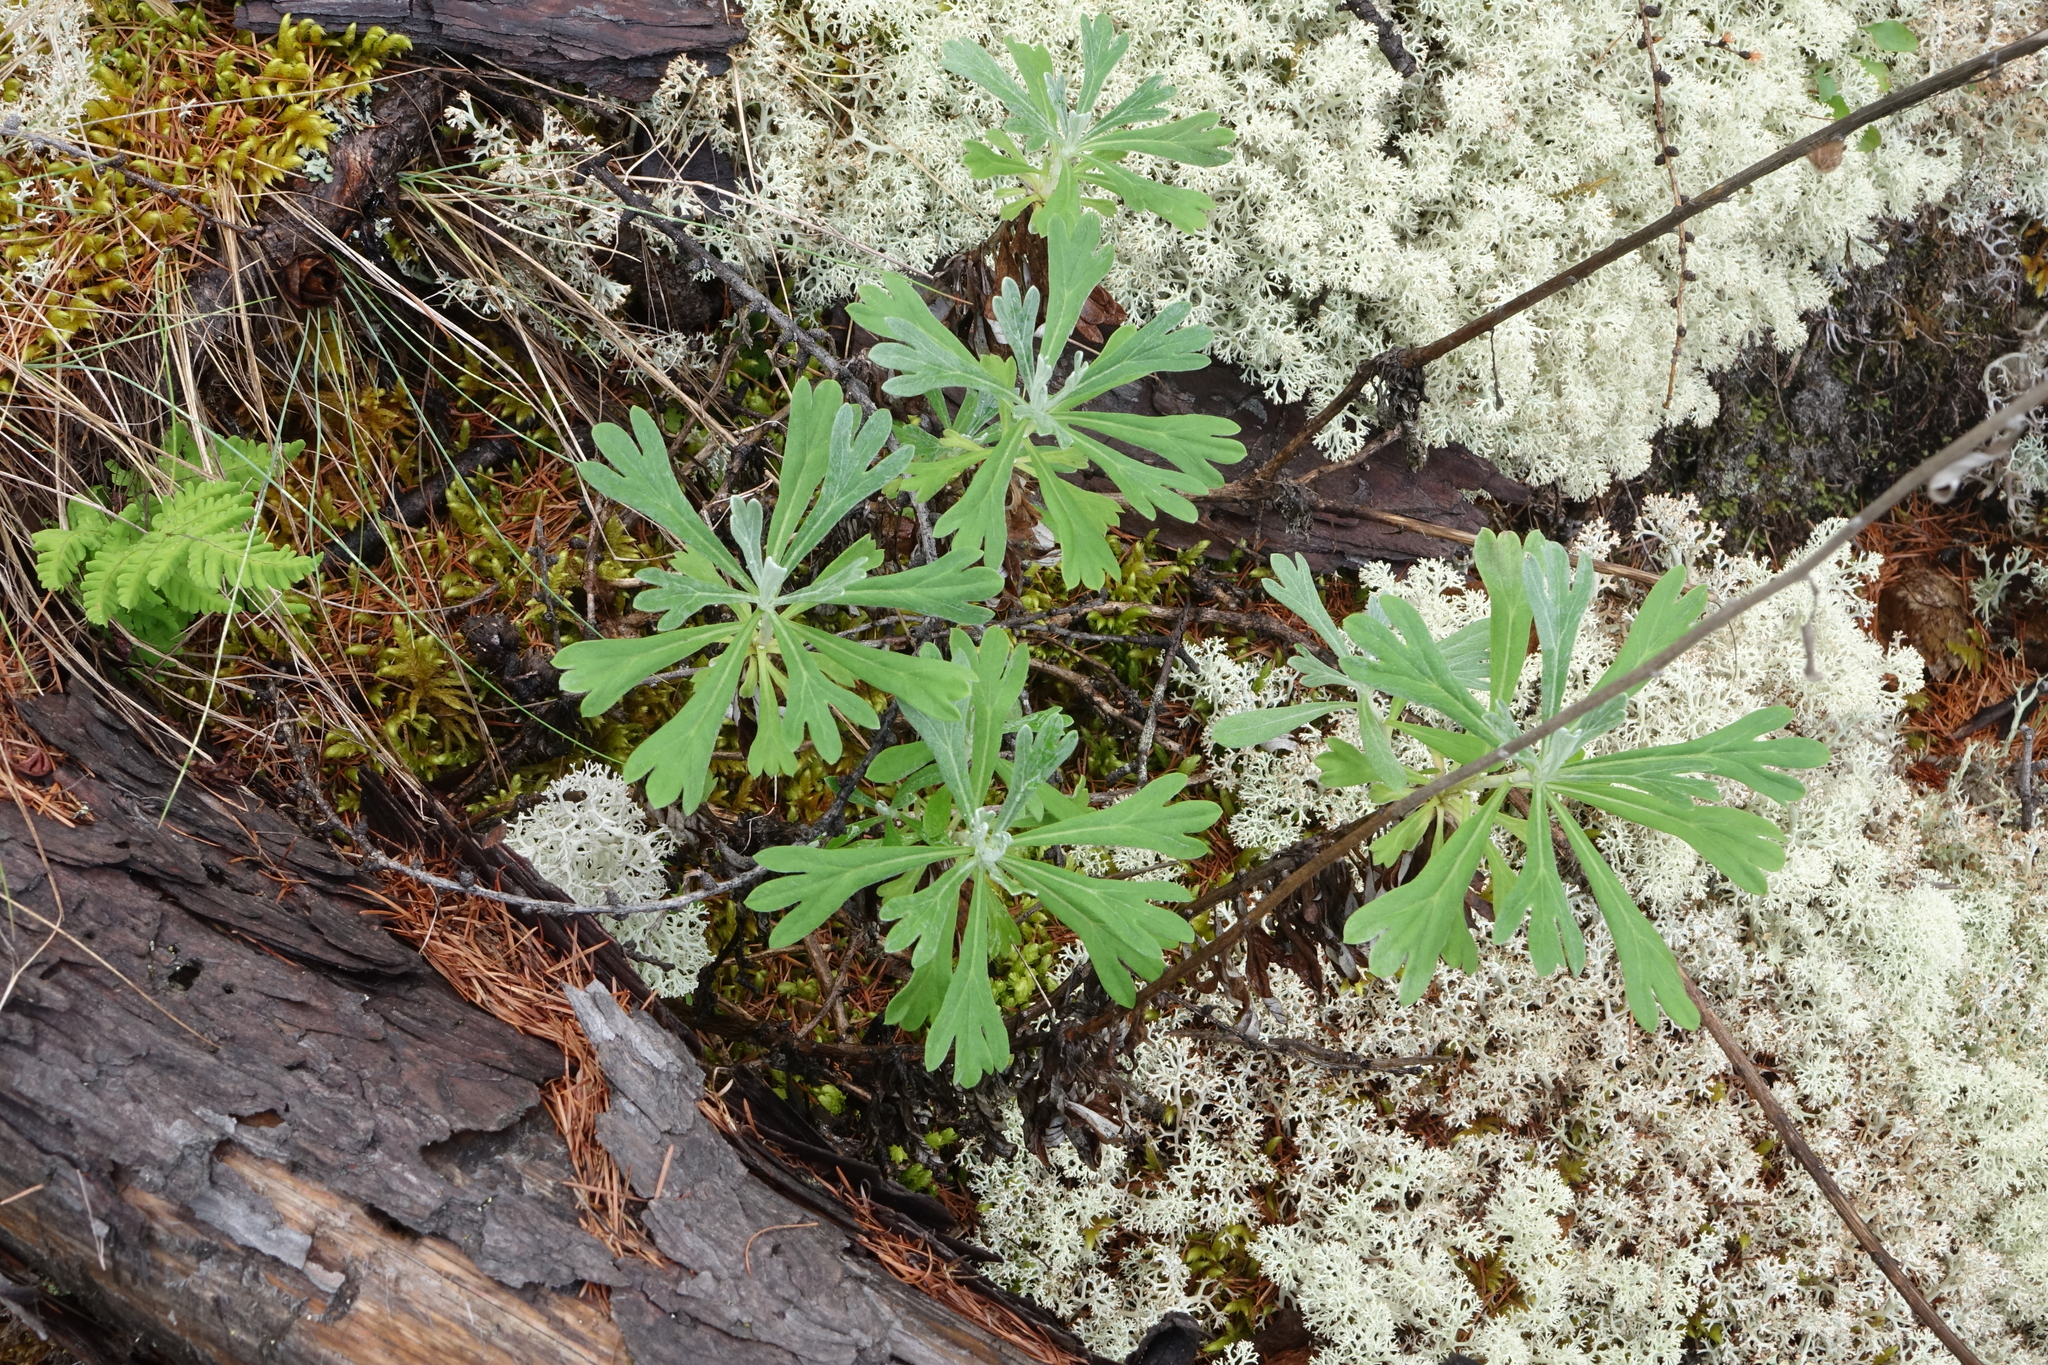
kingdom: Plantae
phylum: Tracheophyta
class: Magnoliopsida
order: Asterales
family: Asteraceae
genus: Artemisia
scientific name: Artemisia lagocephala
